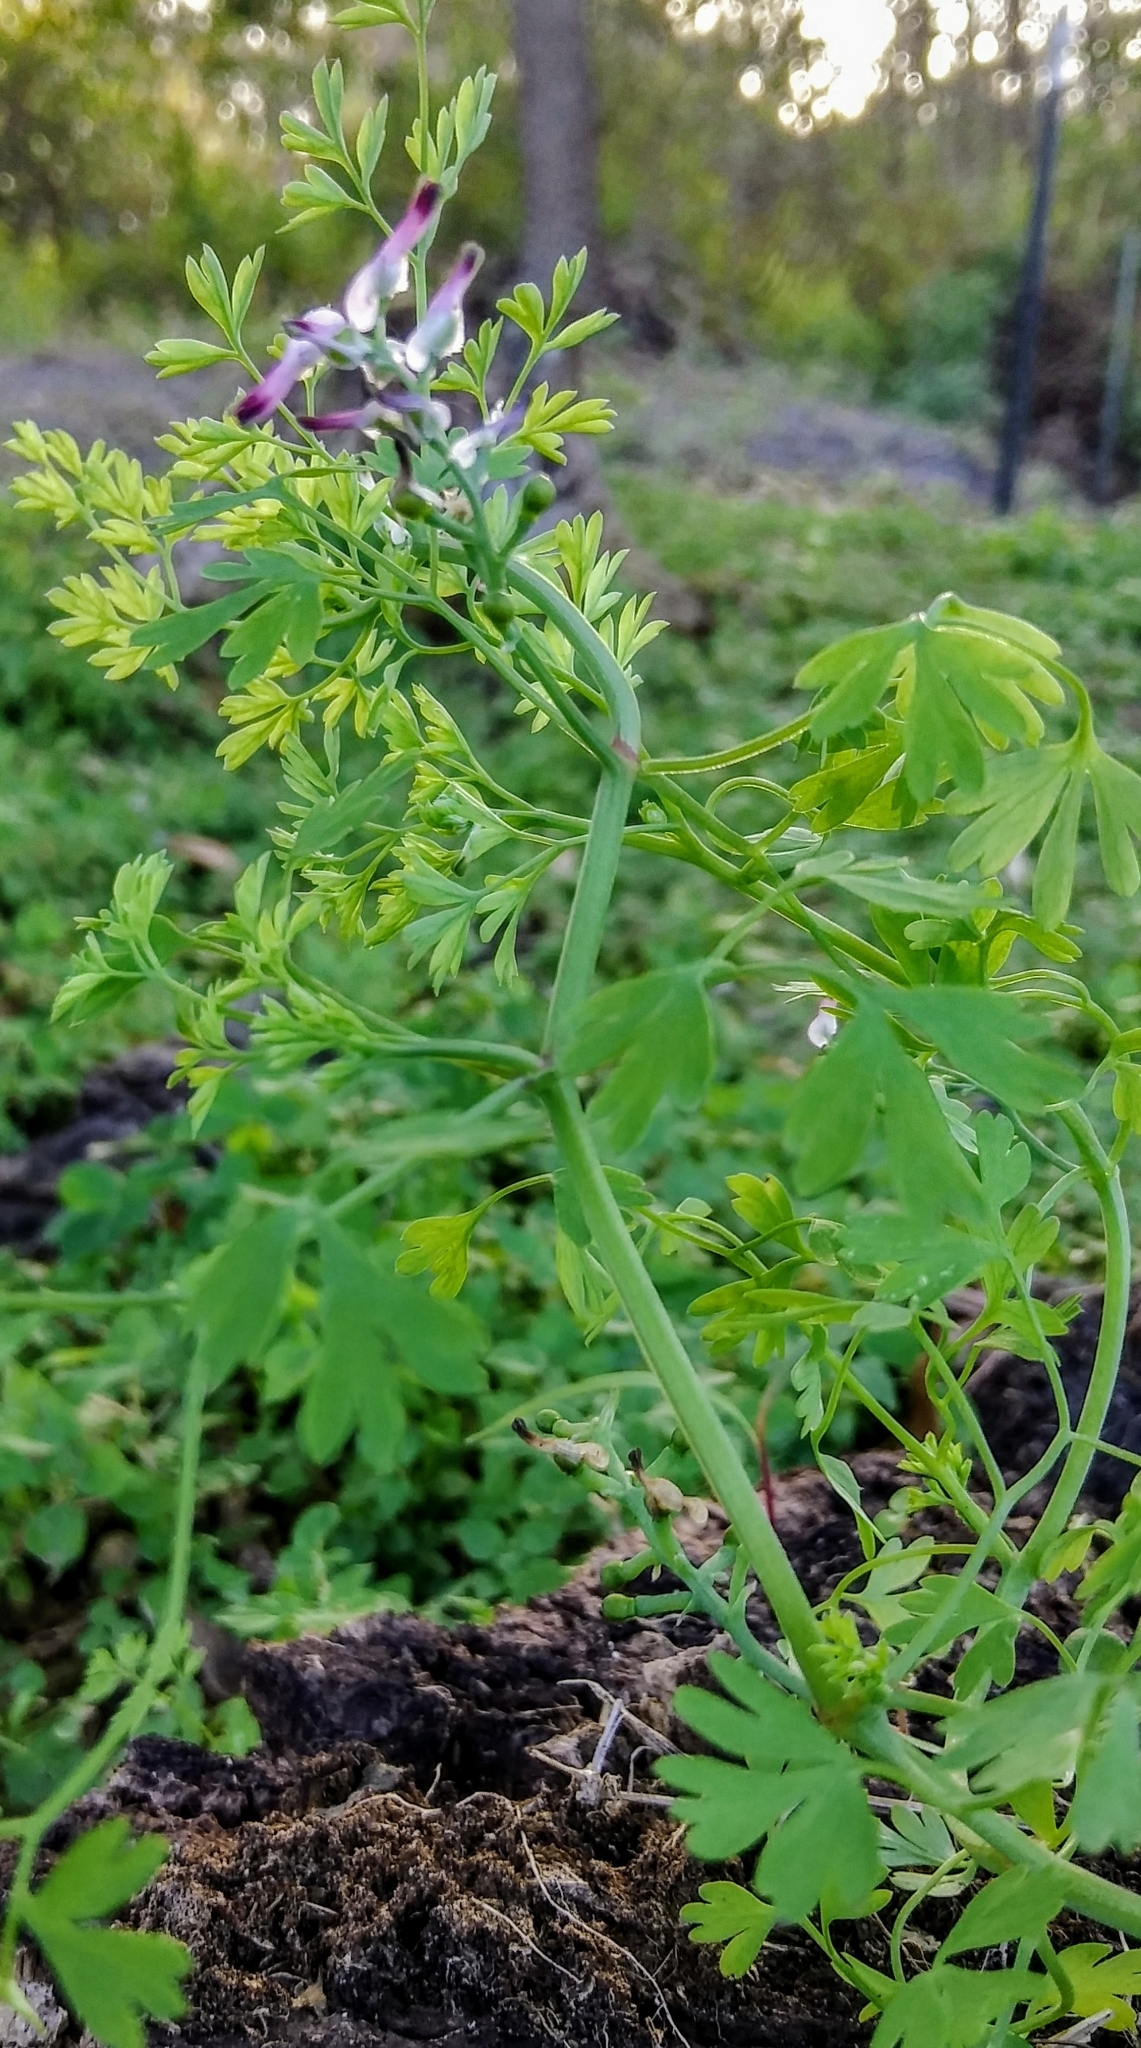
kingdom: Plantae
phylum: Tracheophyta
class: Magnoliopsida
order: Ranunculales
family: Papaveraceae
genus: Fumaria
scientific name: Fumaria
